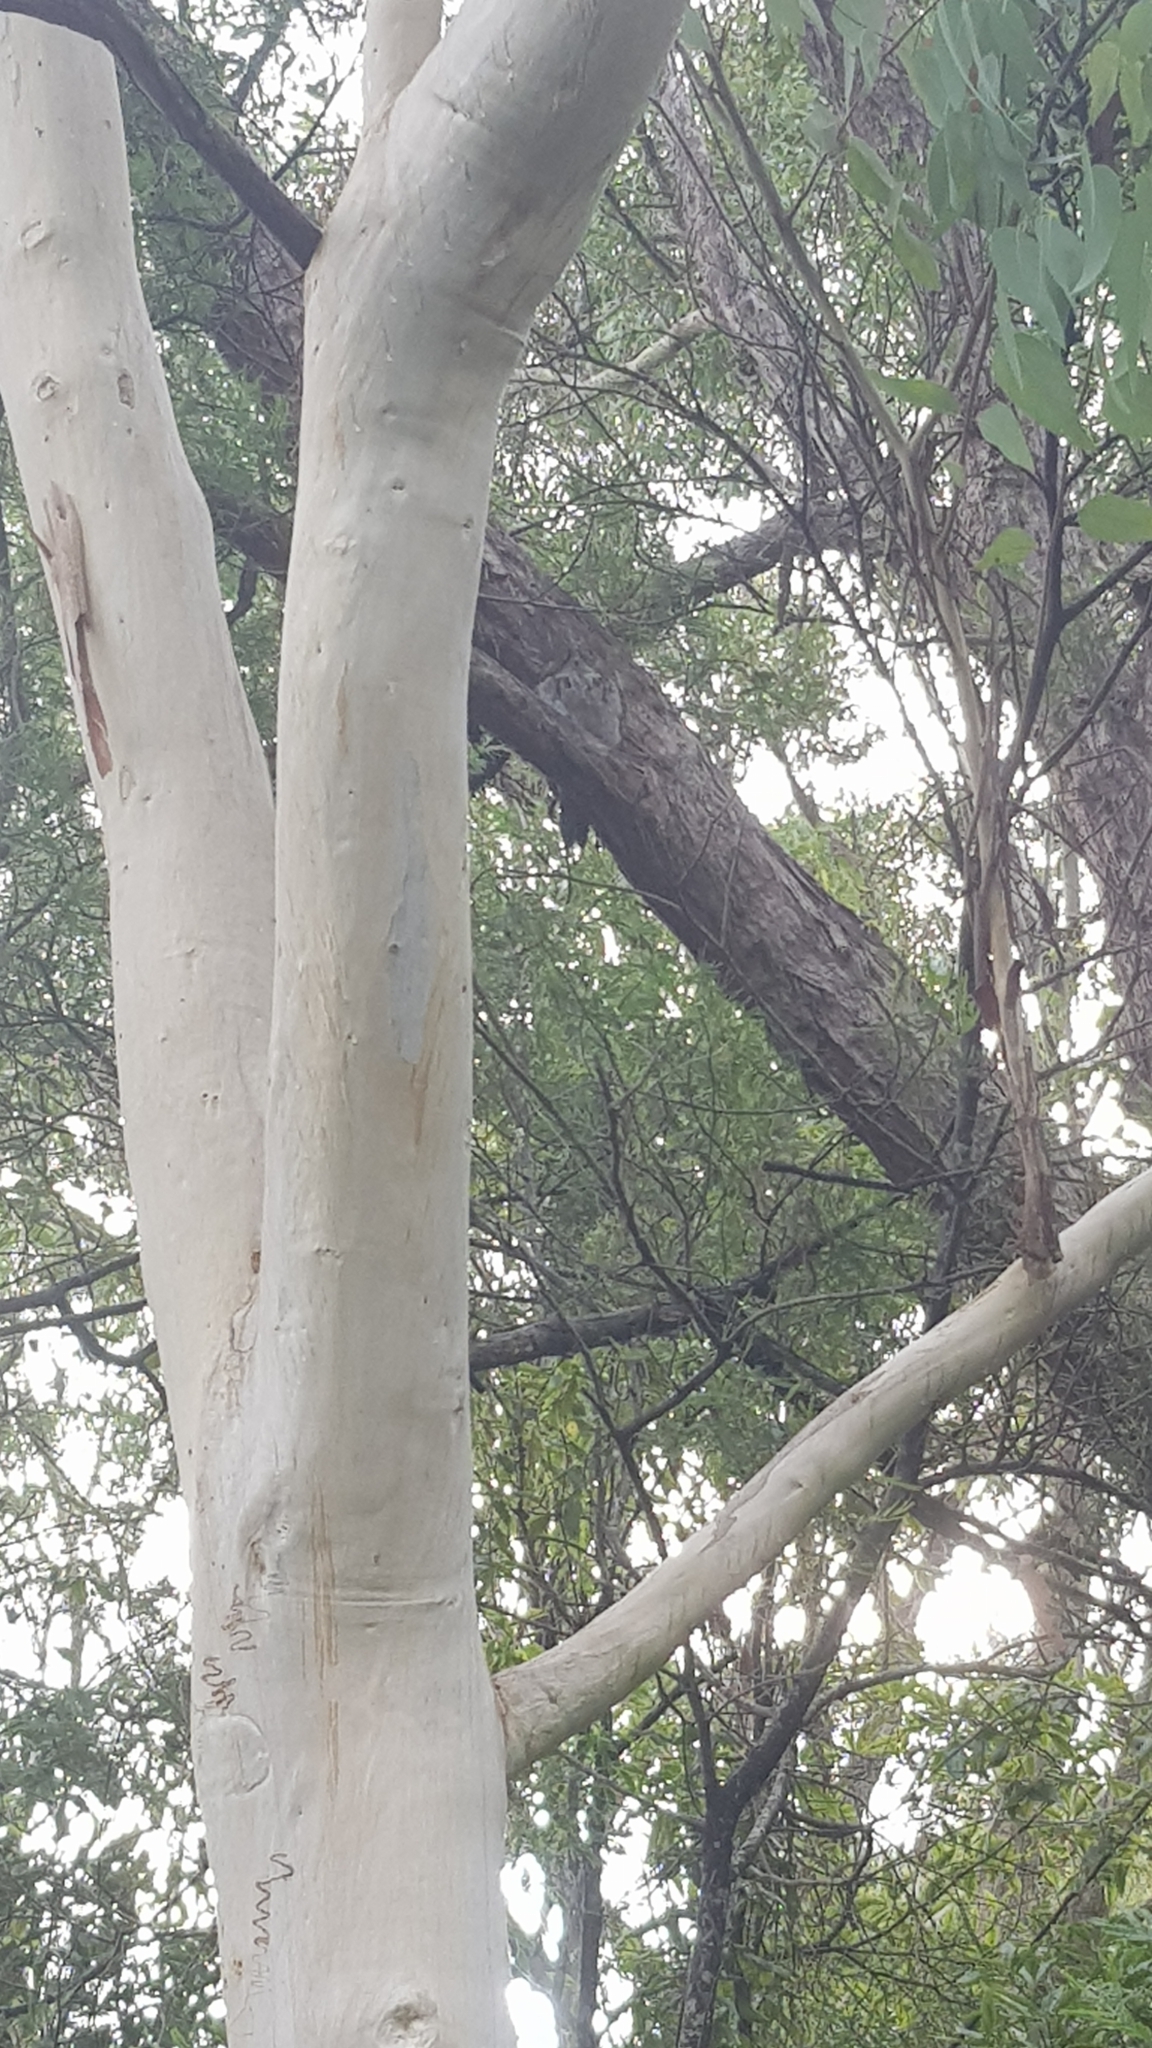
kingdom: Animalia
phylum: Chordata
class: Aves
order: Caprimulgiformes
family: Podargidae
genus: Podargus
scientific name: Podargus strigoides
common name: Tawny frogmouth
